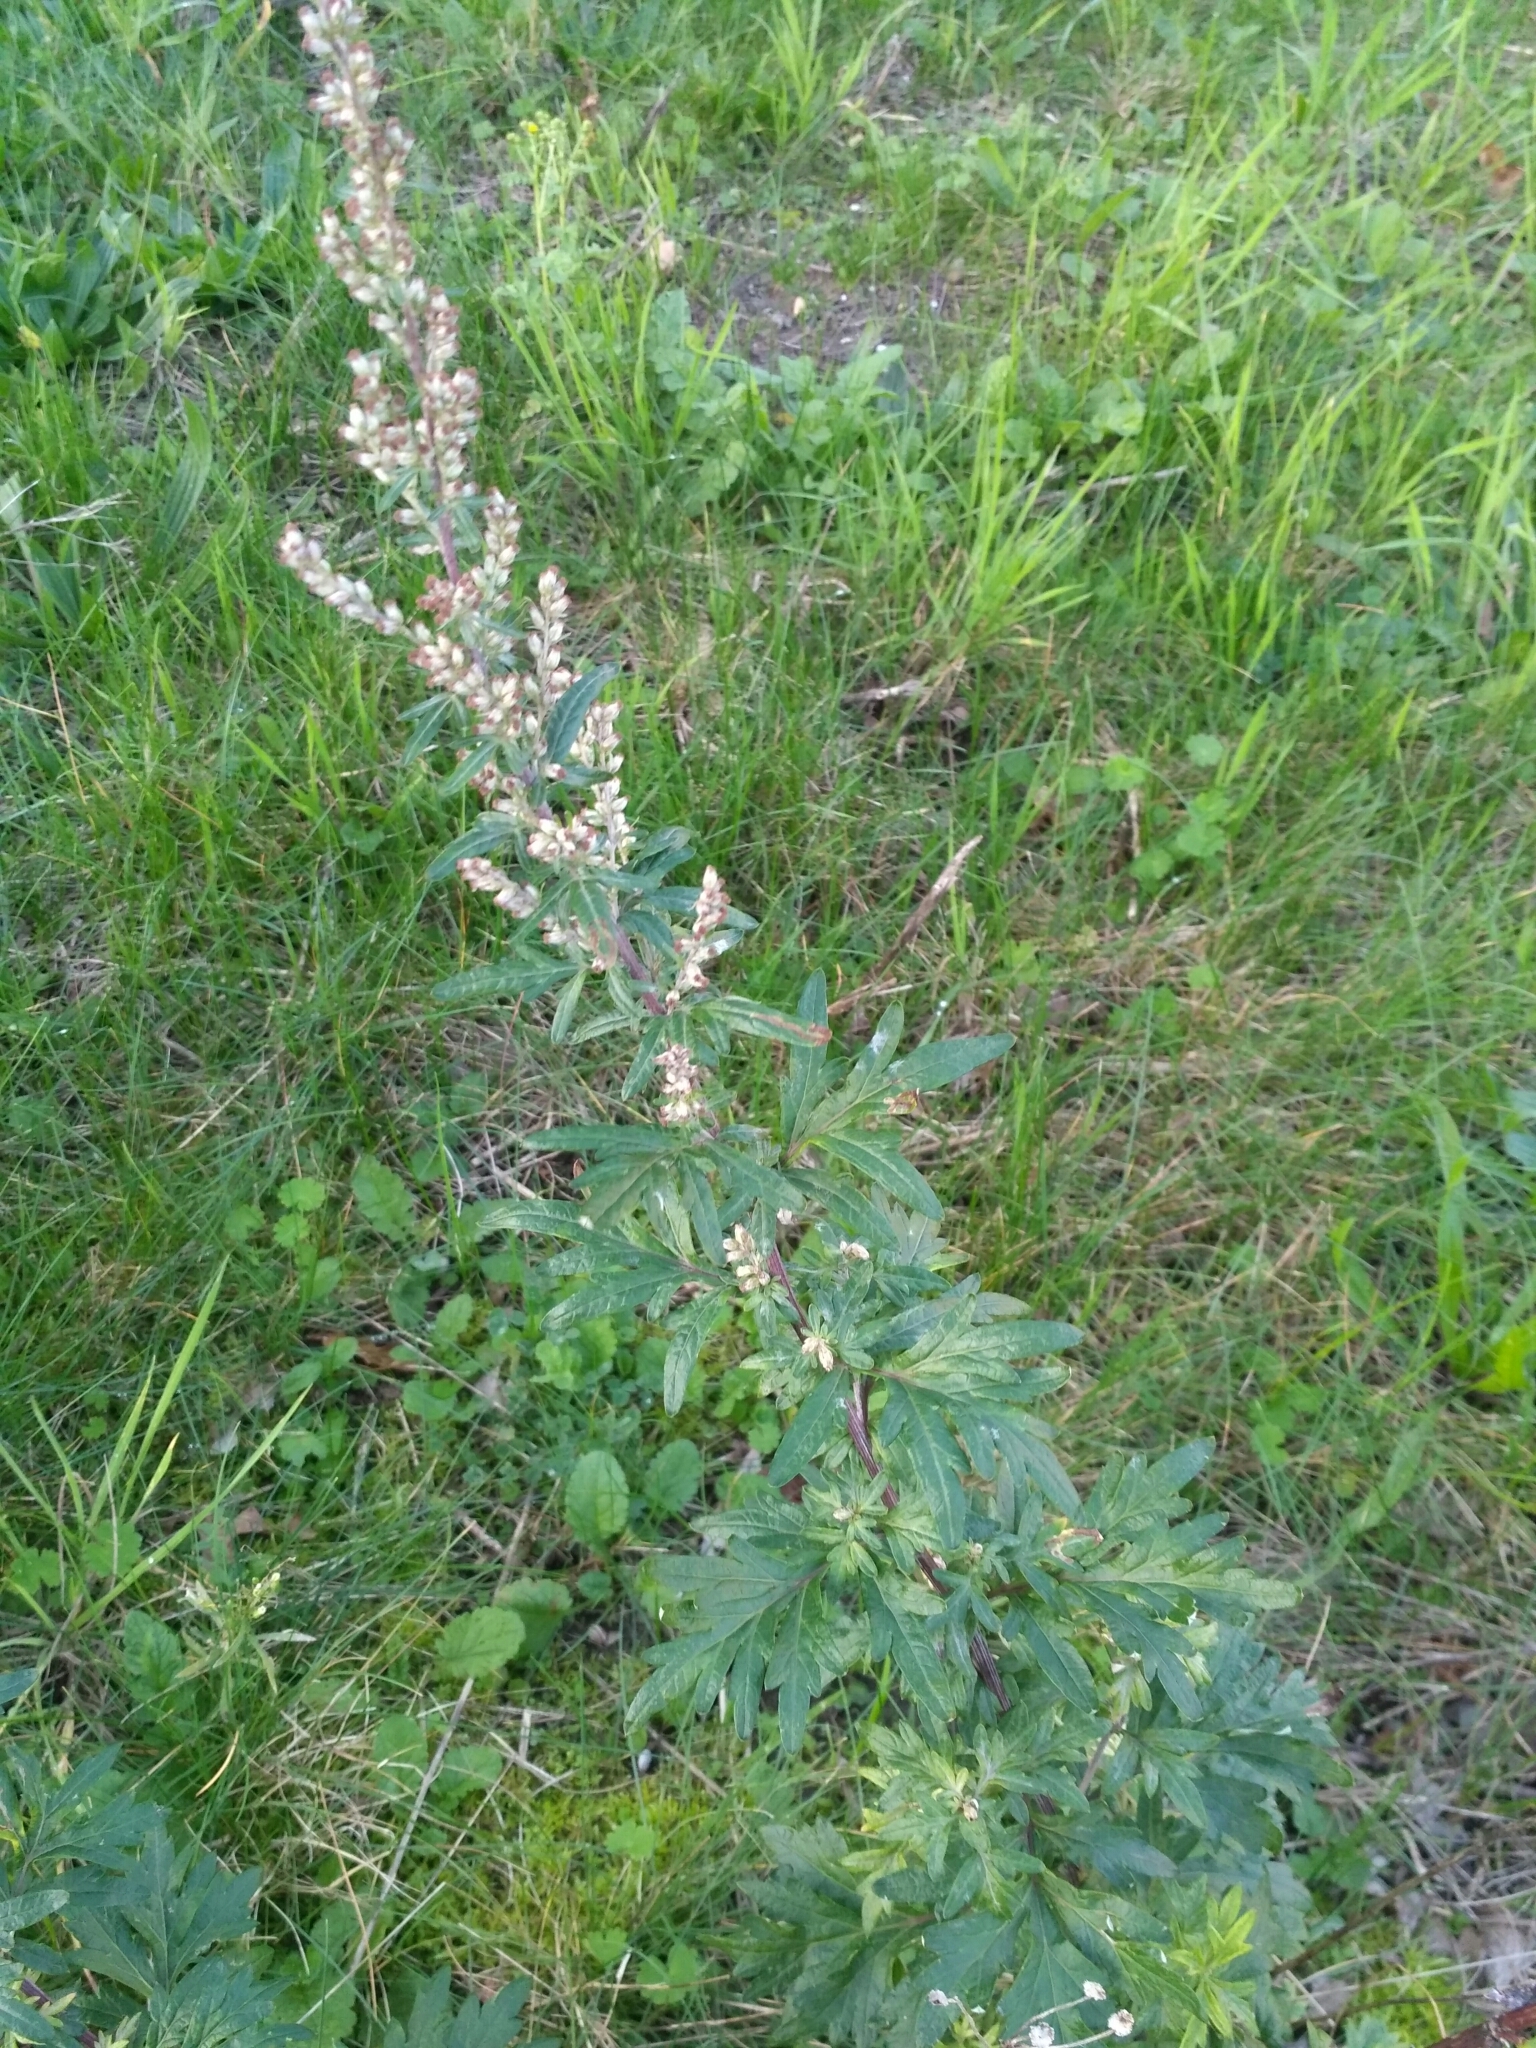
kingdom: Plantae
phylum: Tracheophyta
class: Magnoliopsida
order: Asterales
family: Asteraceae
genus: Artemisia
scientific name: Artemisia vulgaris
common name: Mugwort
